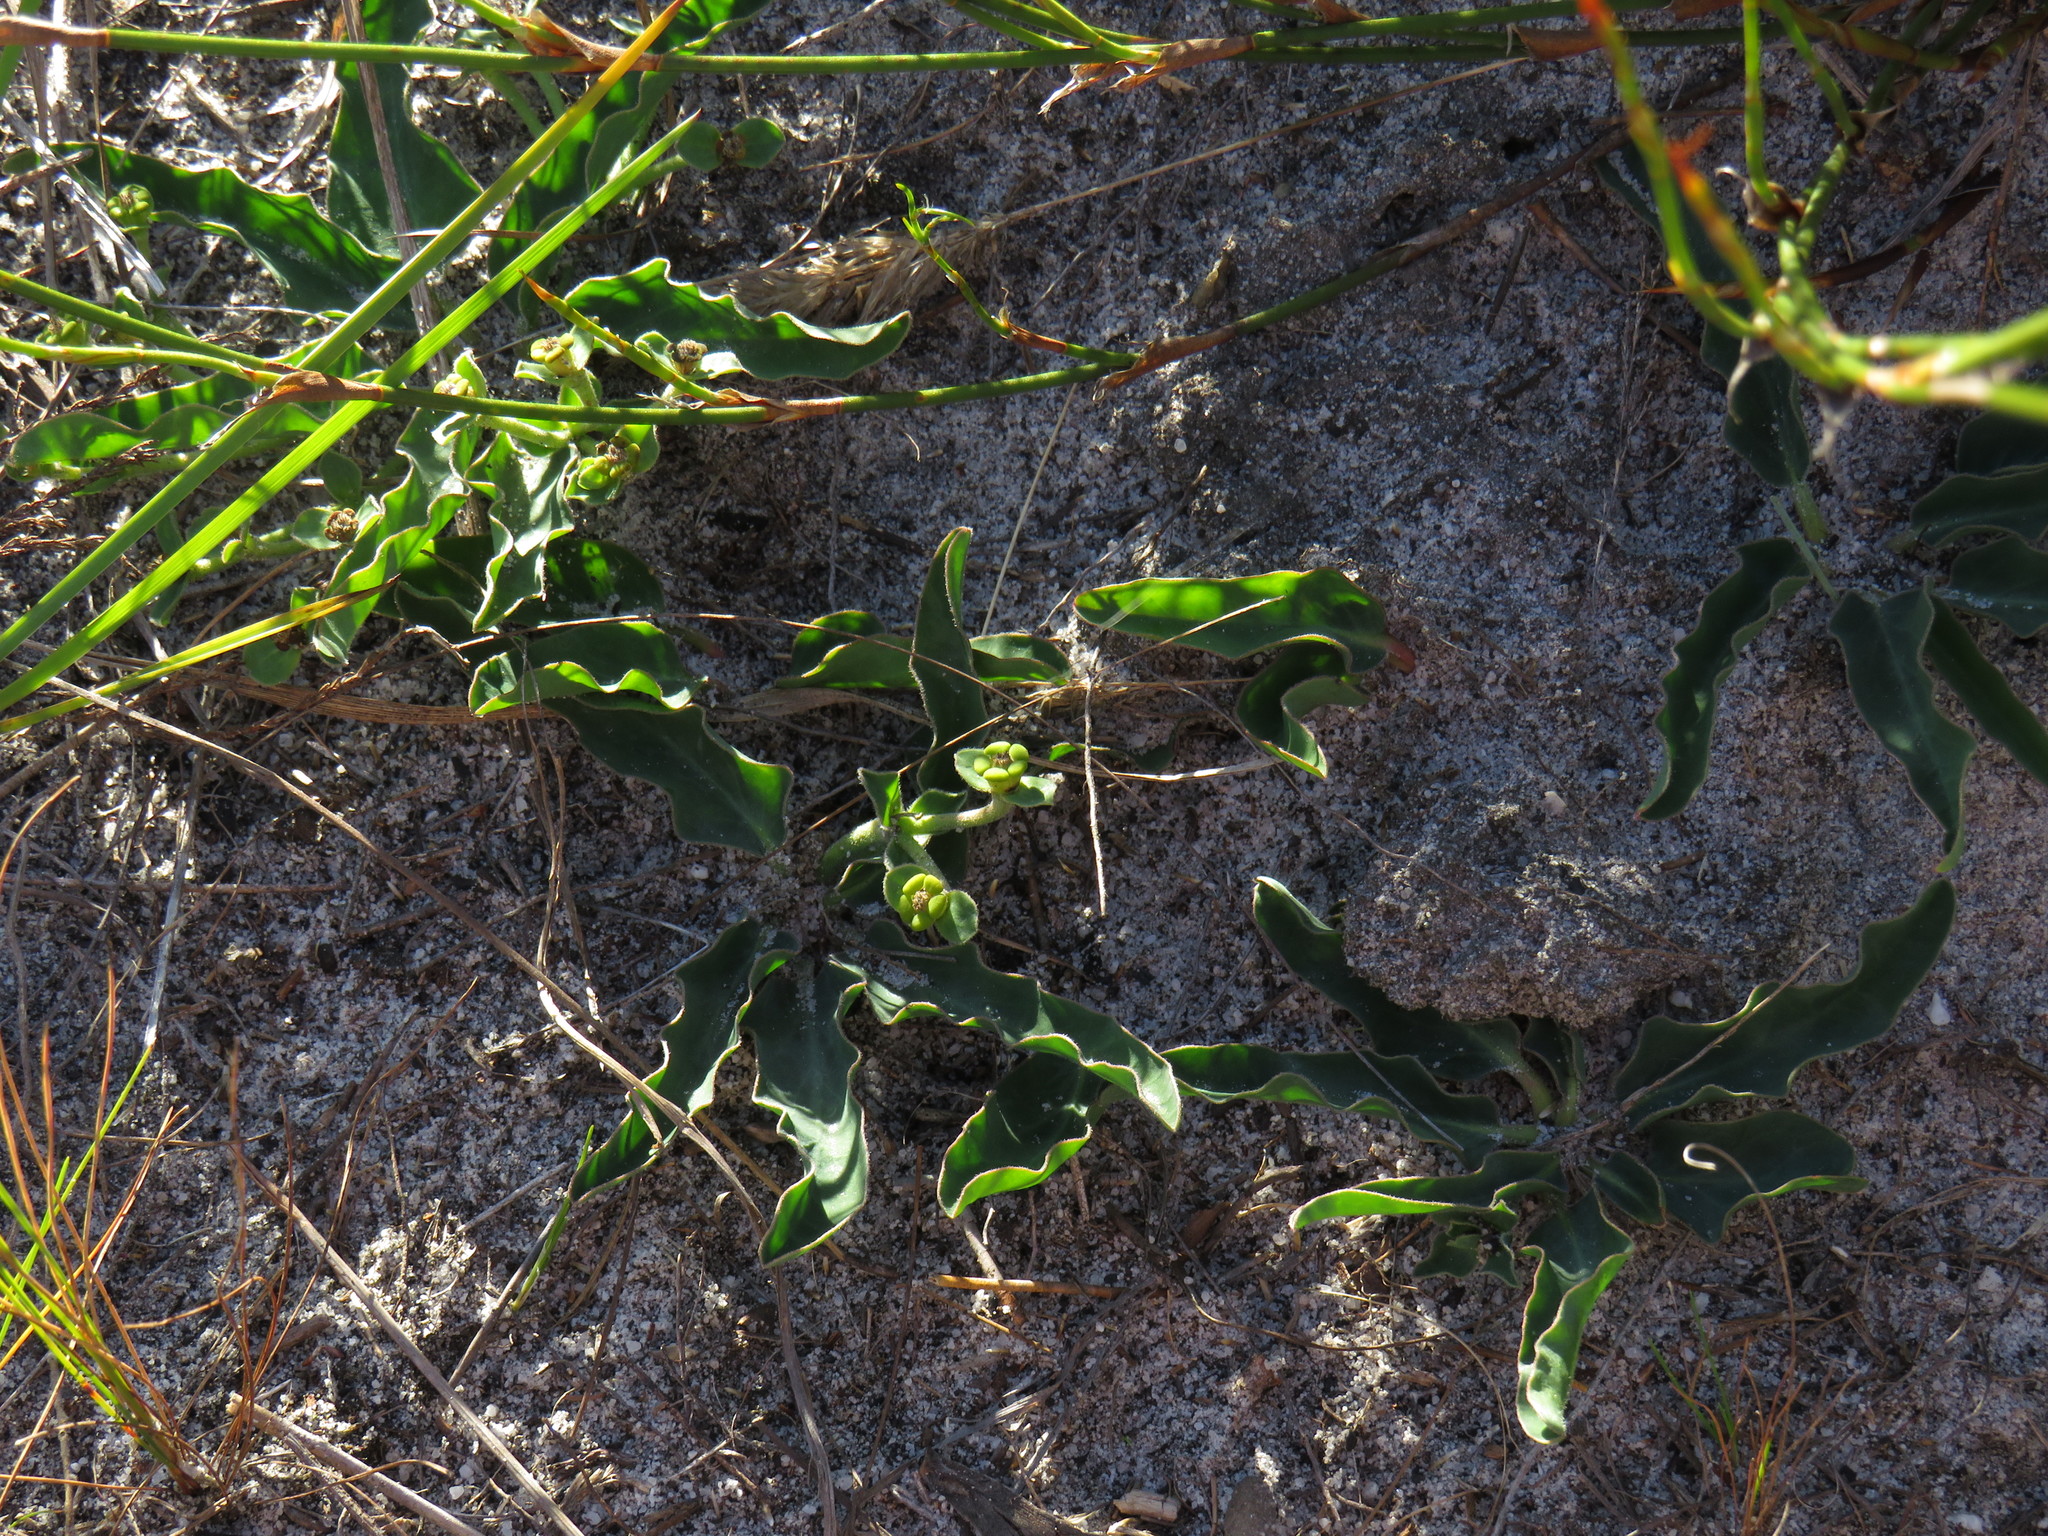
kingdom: Plantae
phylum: Tracheophyta
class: Magnoliopsida
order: Malpighiales
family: Euphorbiaceae
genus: Euphorbia
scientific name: Euphorbia tuberosa
